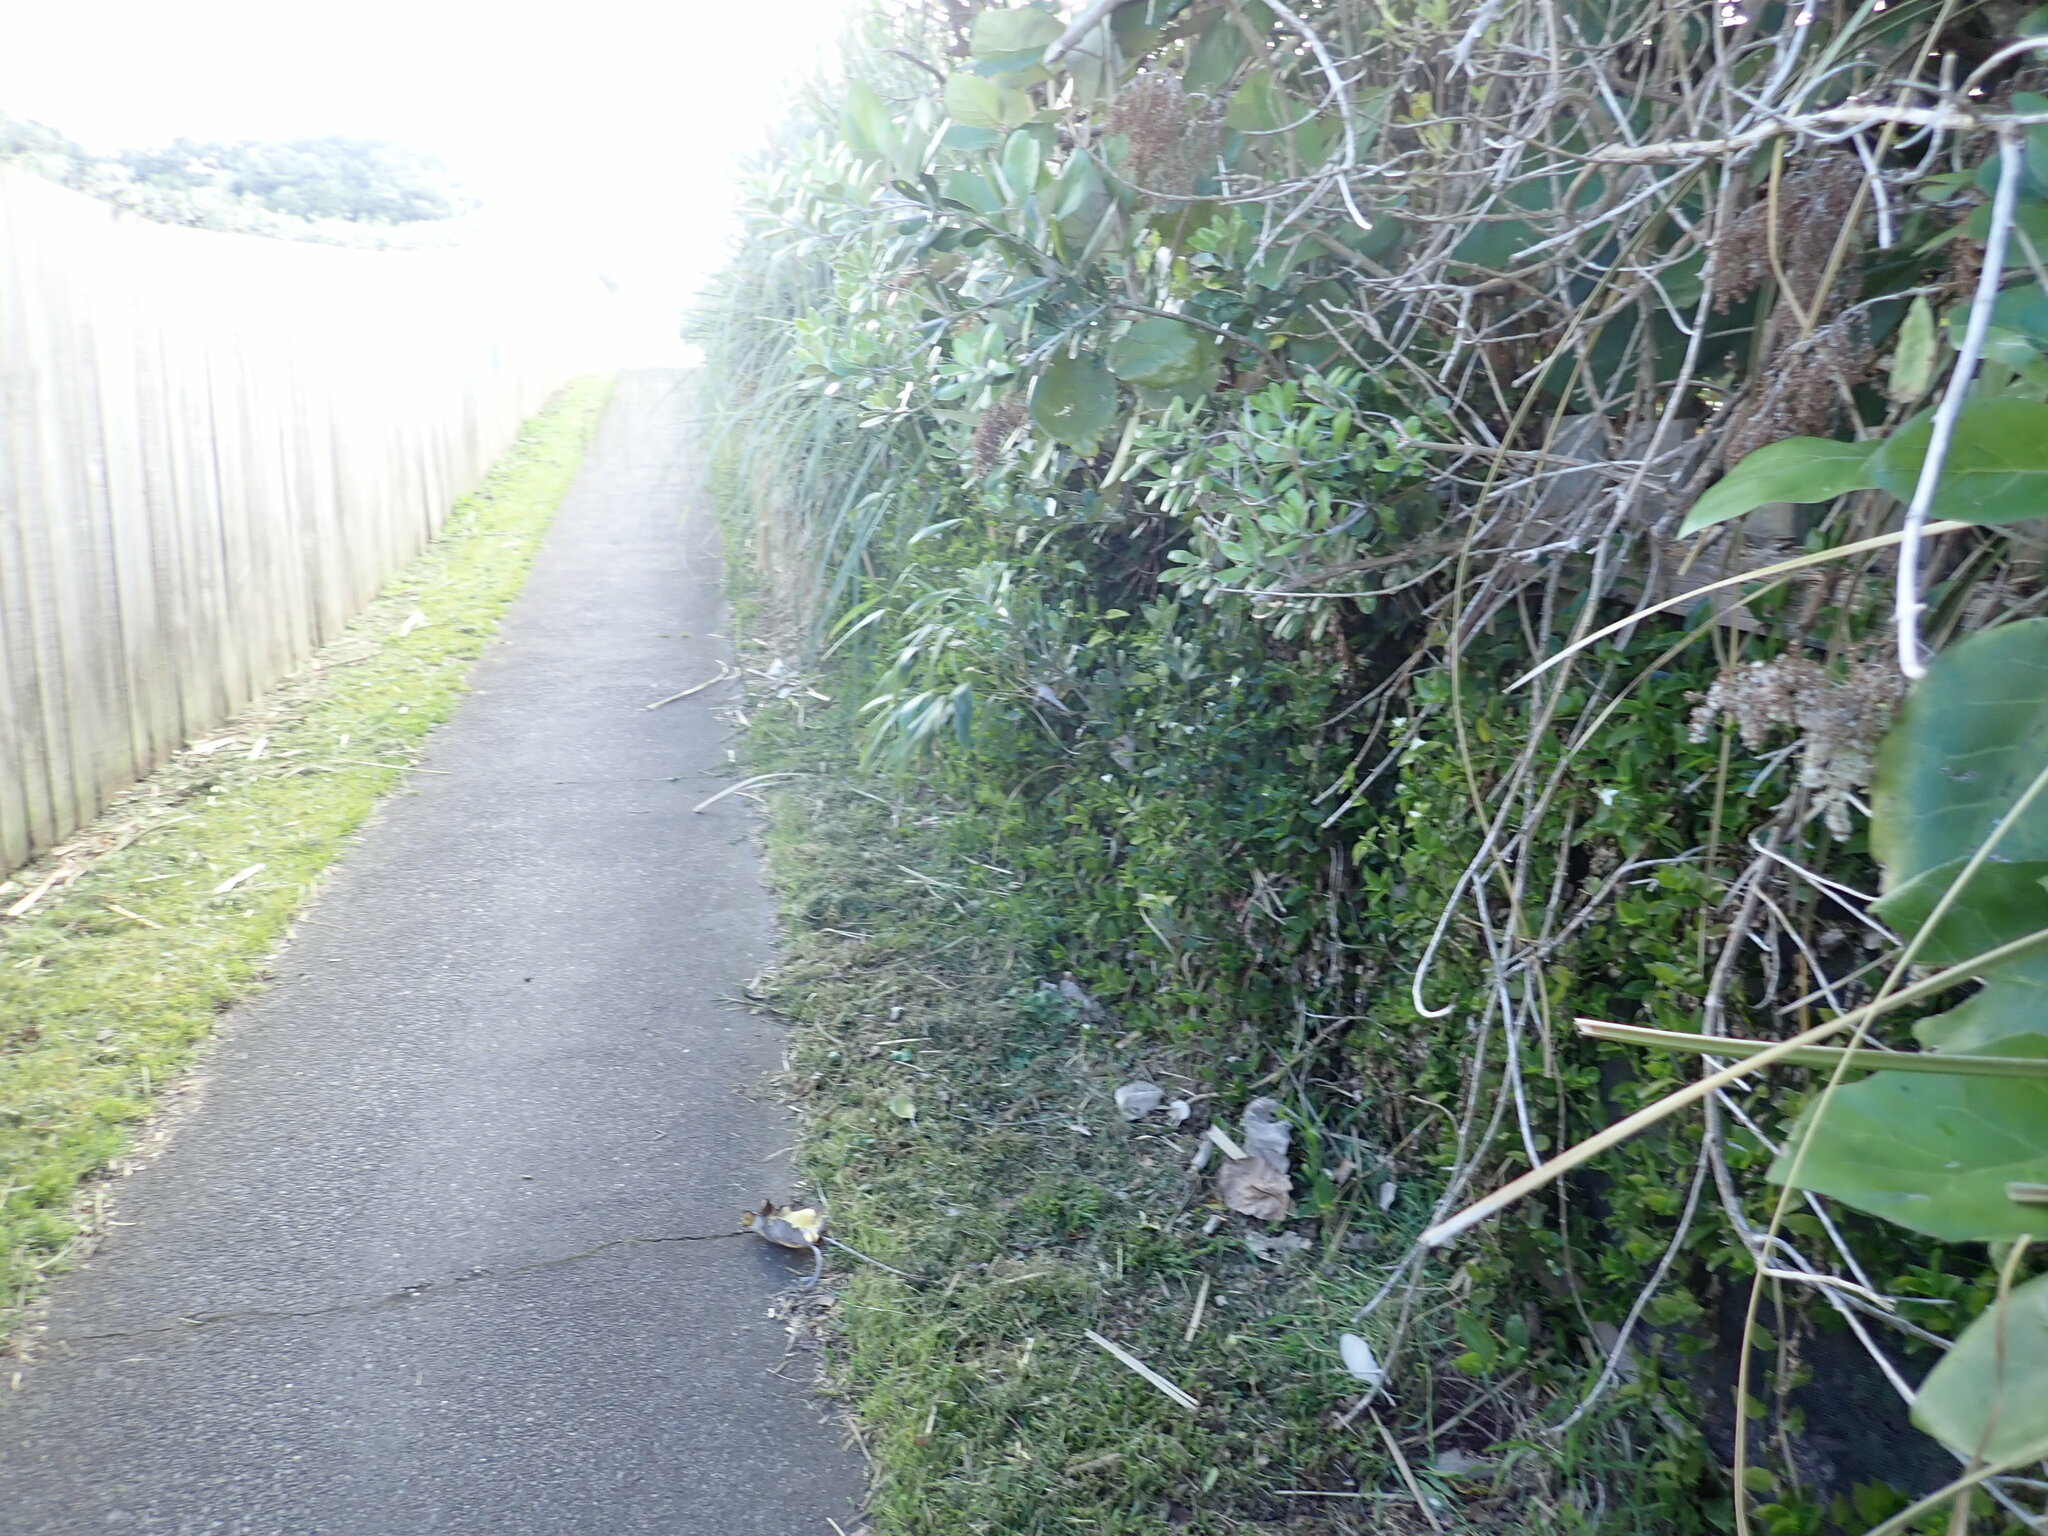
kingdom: Plantae
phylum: Tracheophyta
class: Liliopsida
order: Commelinales
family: Commelinaceae
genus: Tradescantia
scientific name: Tradescantia fluminensis
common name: Wandering-jew
